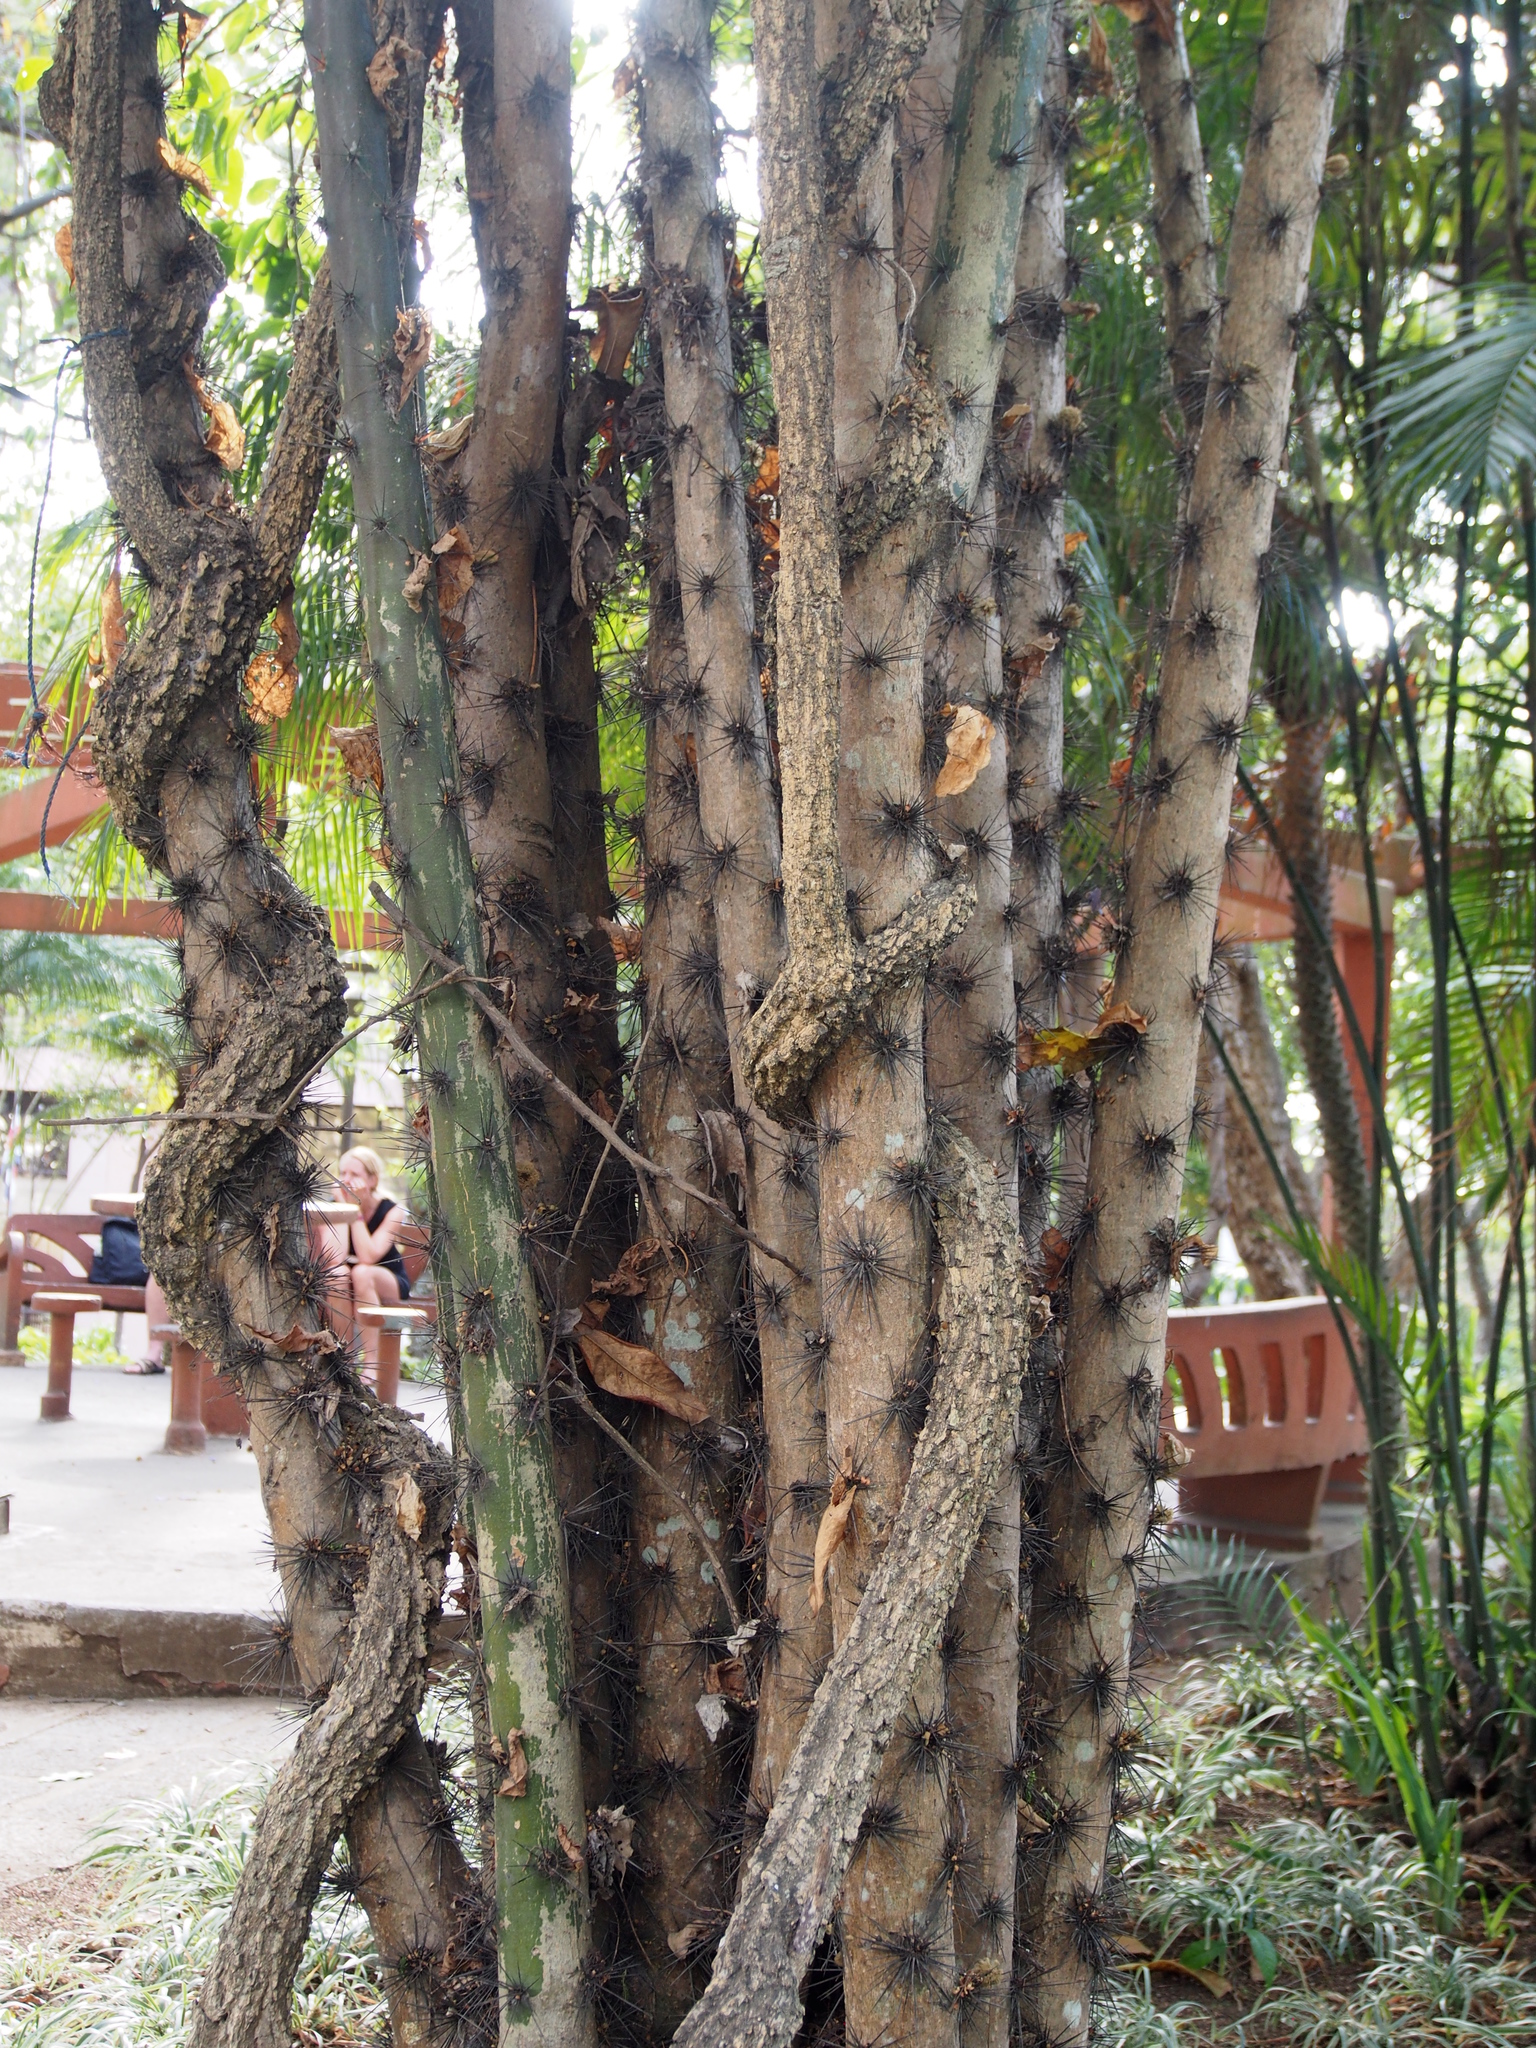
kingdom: Plantae
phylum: Tracheophyta
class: Magnoliopsida
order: Caryophyllales
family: Cactaceae
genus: Pereskia
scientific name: Pereskia grandifolia
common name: Rose cactus
